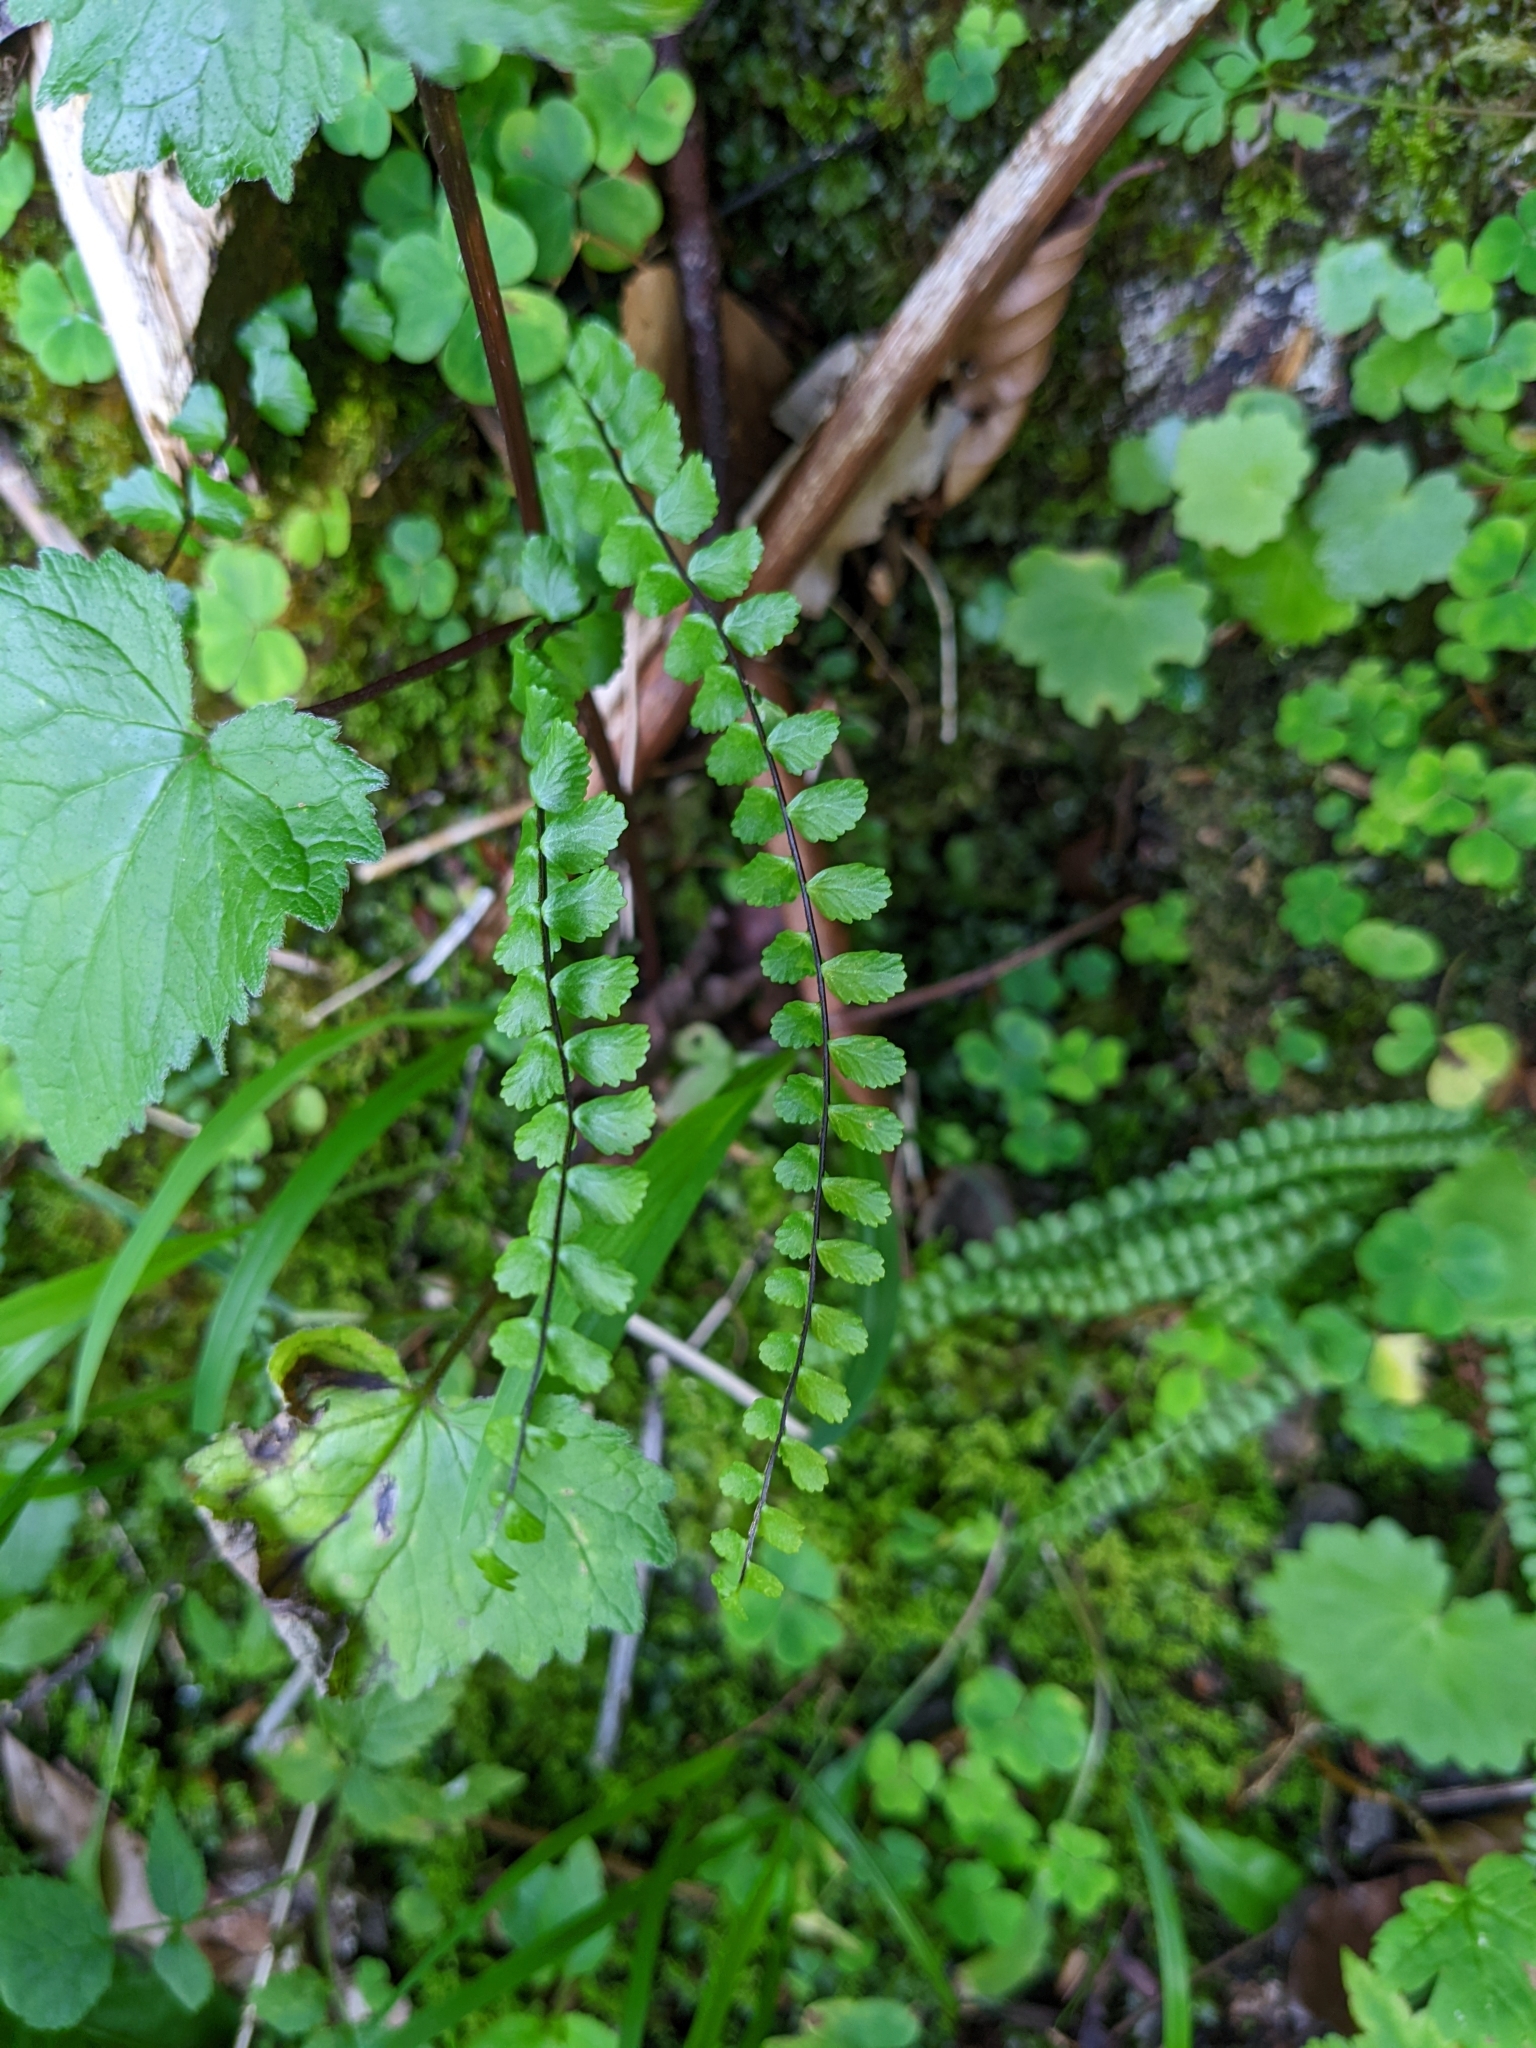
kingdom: Plantae
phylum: Tracheophyta
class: Polypodiopsida
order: Polypodiales
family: Aspleniaceae
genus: Asplenium
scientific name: Asplenium trichomanes
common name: Maidenhair spleenwort
